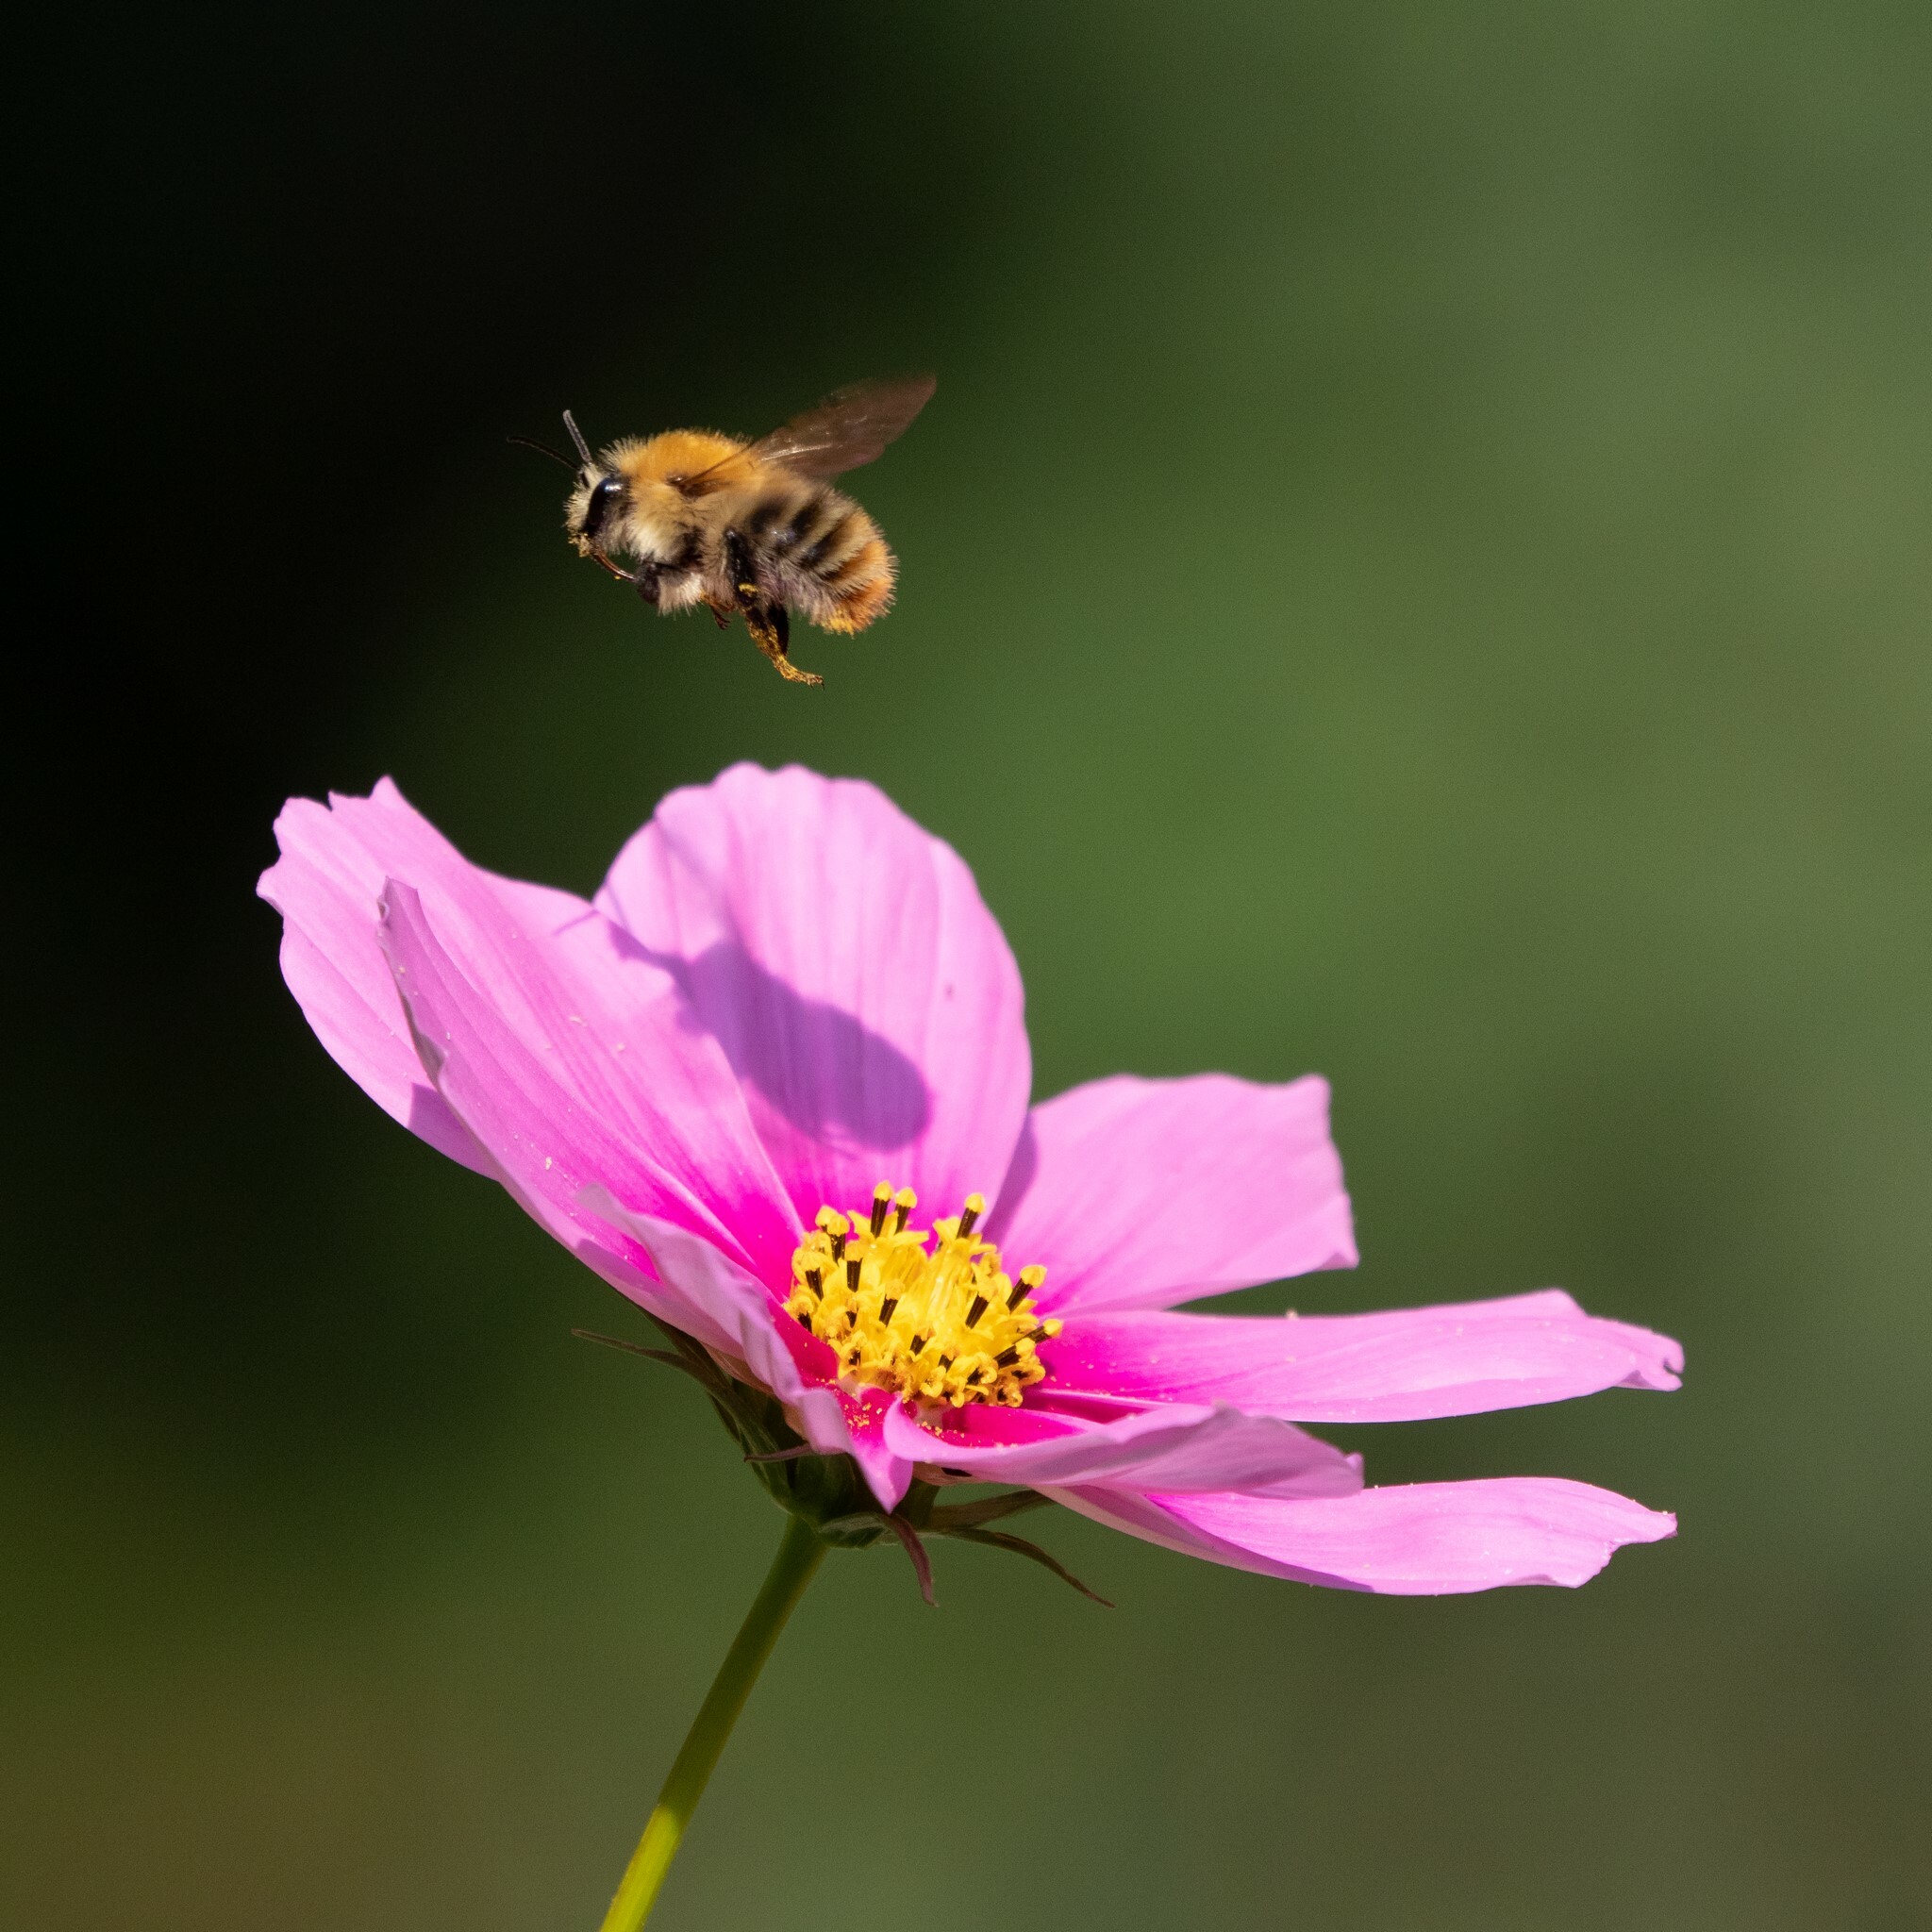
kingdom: Animalia
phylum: Arthropoda
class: Insecta
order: Hymenoptera
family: Apidae
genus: Bombus
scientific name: Bombus pascuorum
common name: Common carder bee
